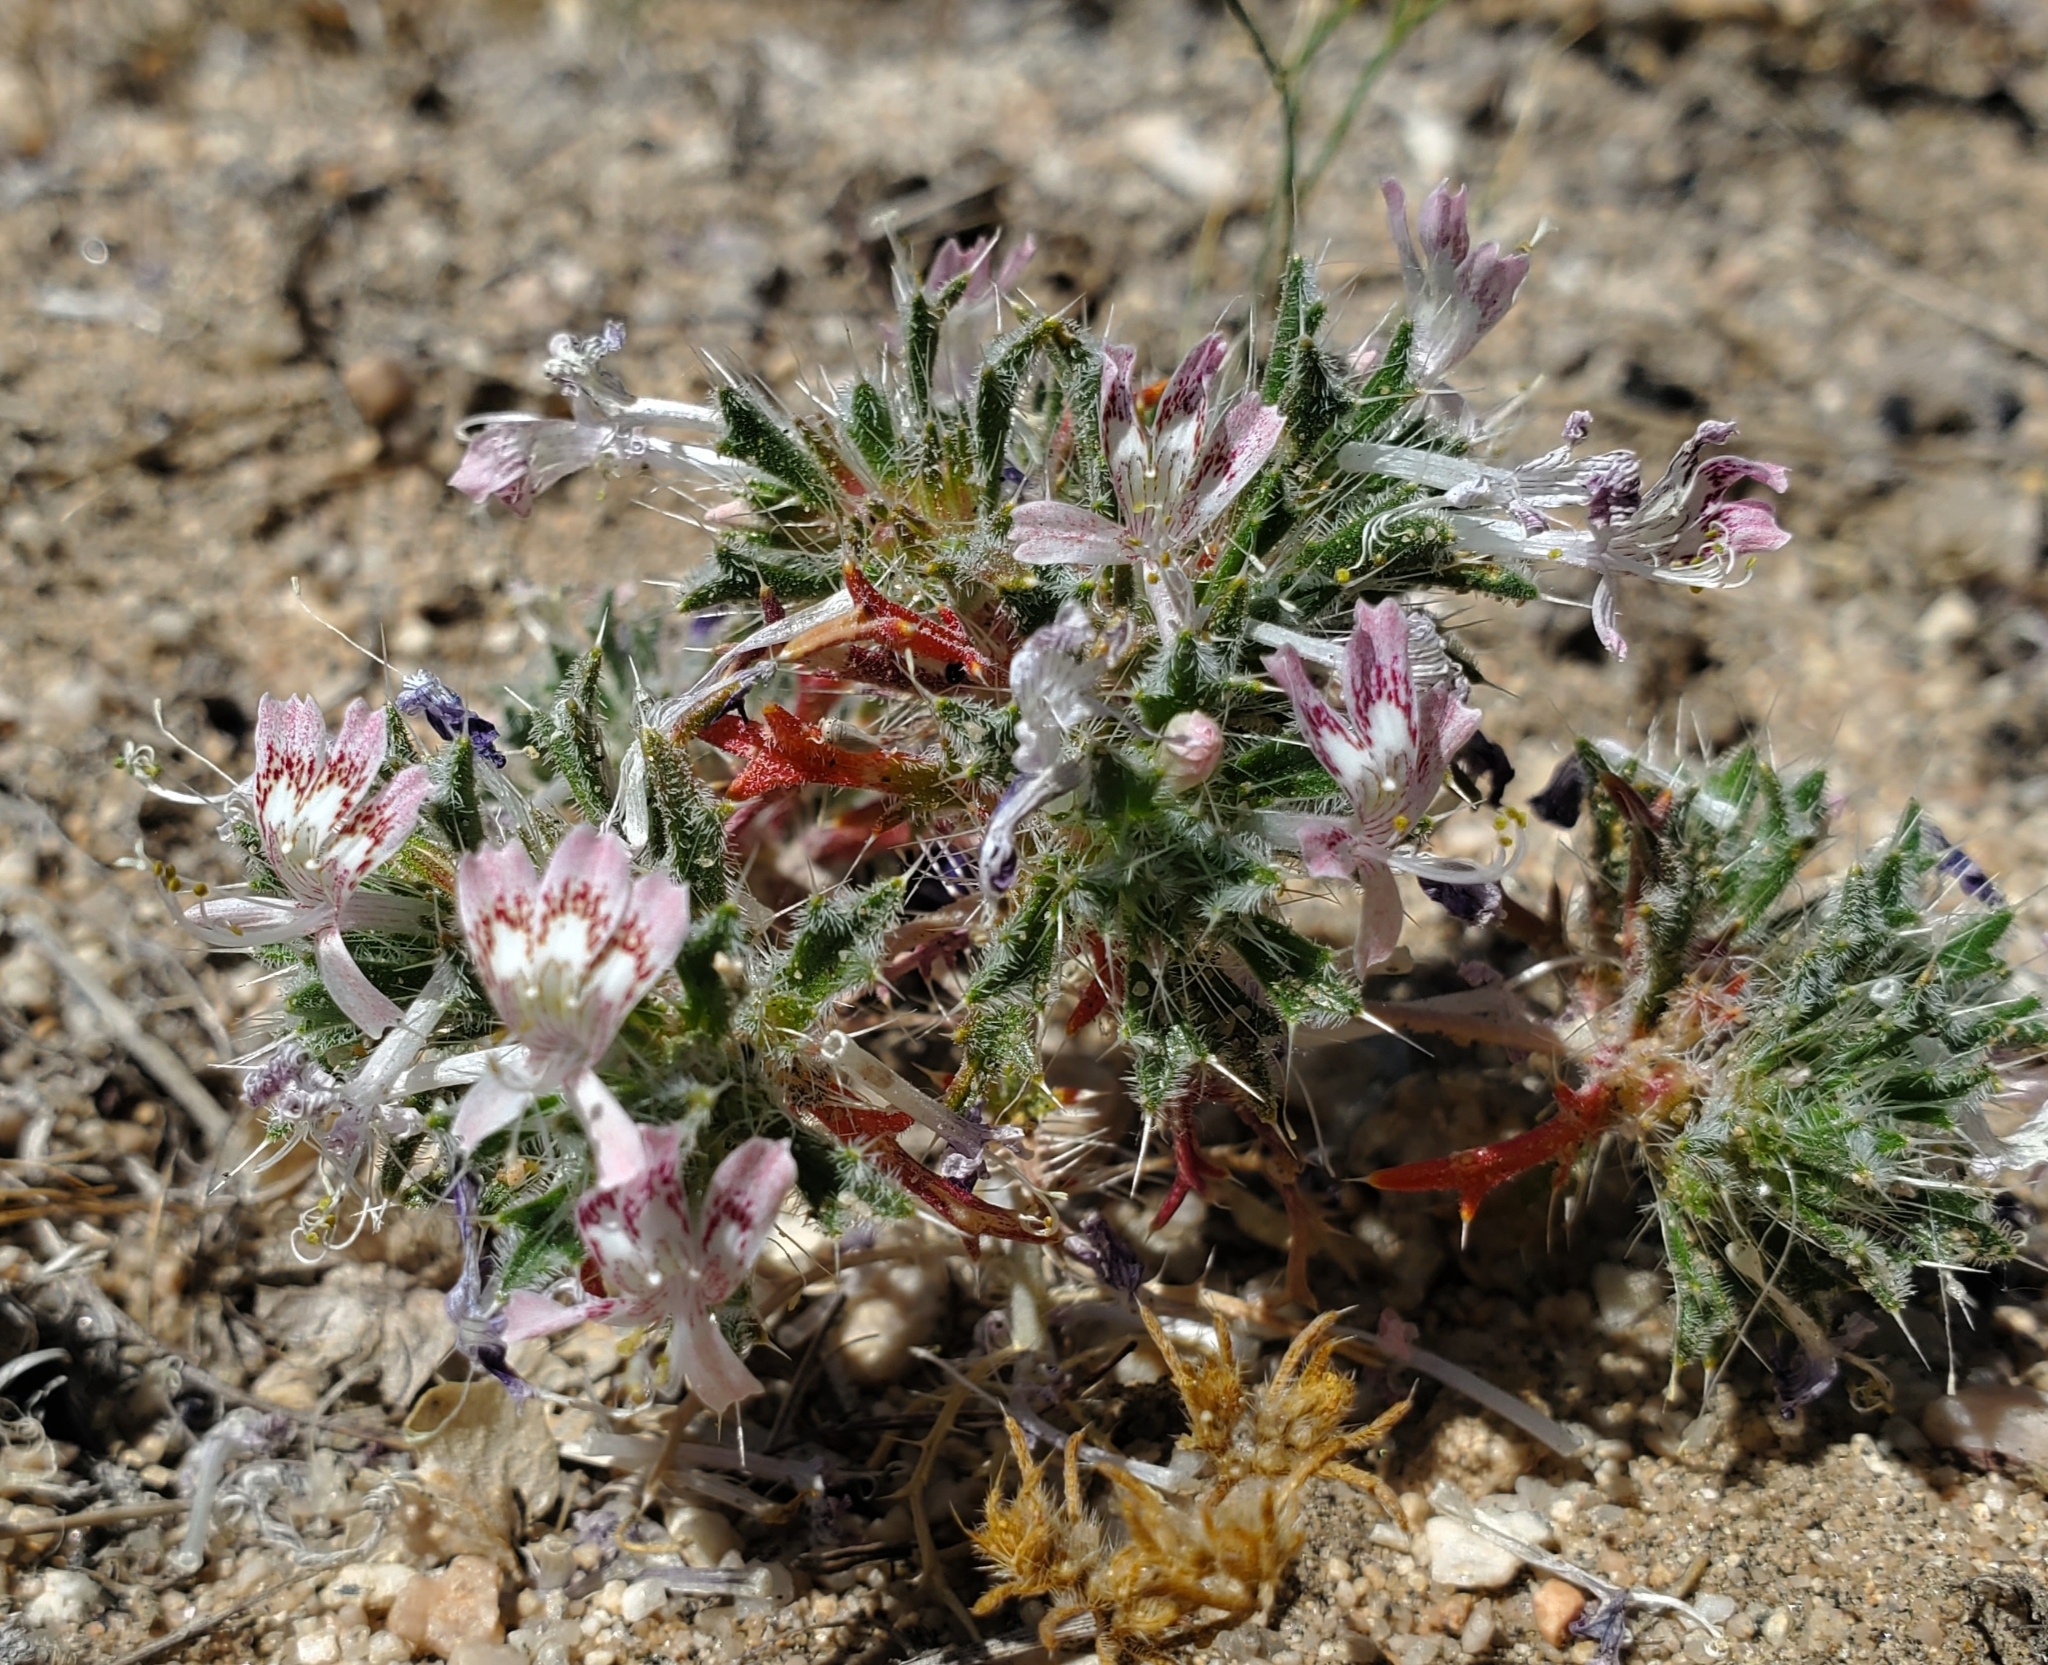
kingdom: Plantae
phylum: Tracheophyta
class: Magnoliopsida
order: Ericales
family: Polemoniaceae
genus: Loeseliastrum
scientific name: Loeseliastrum matthewsii
